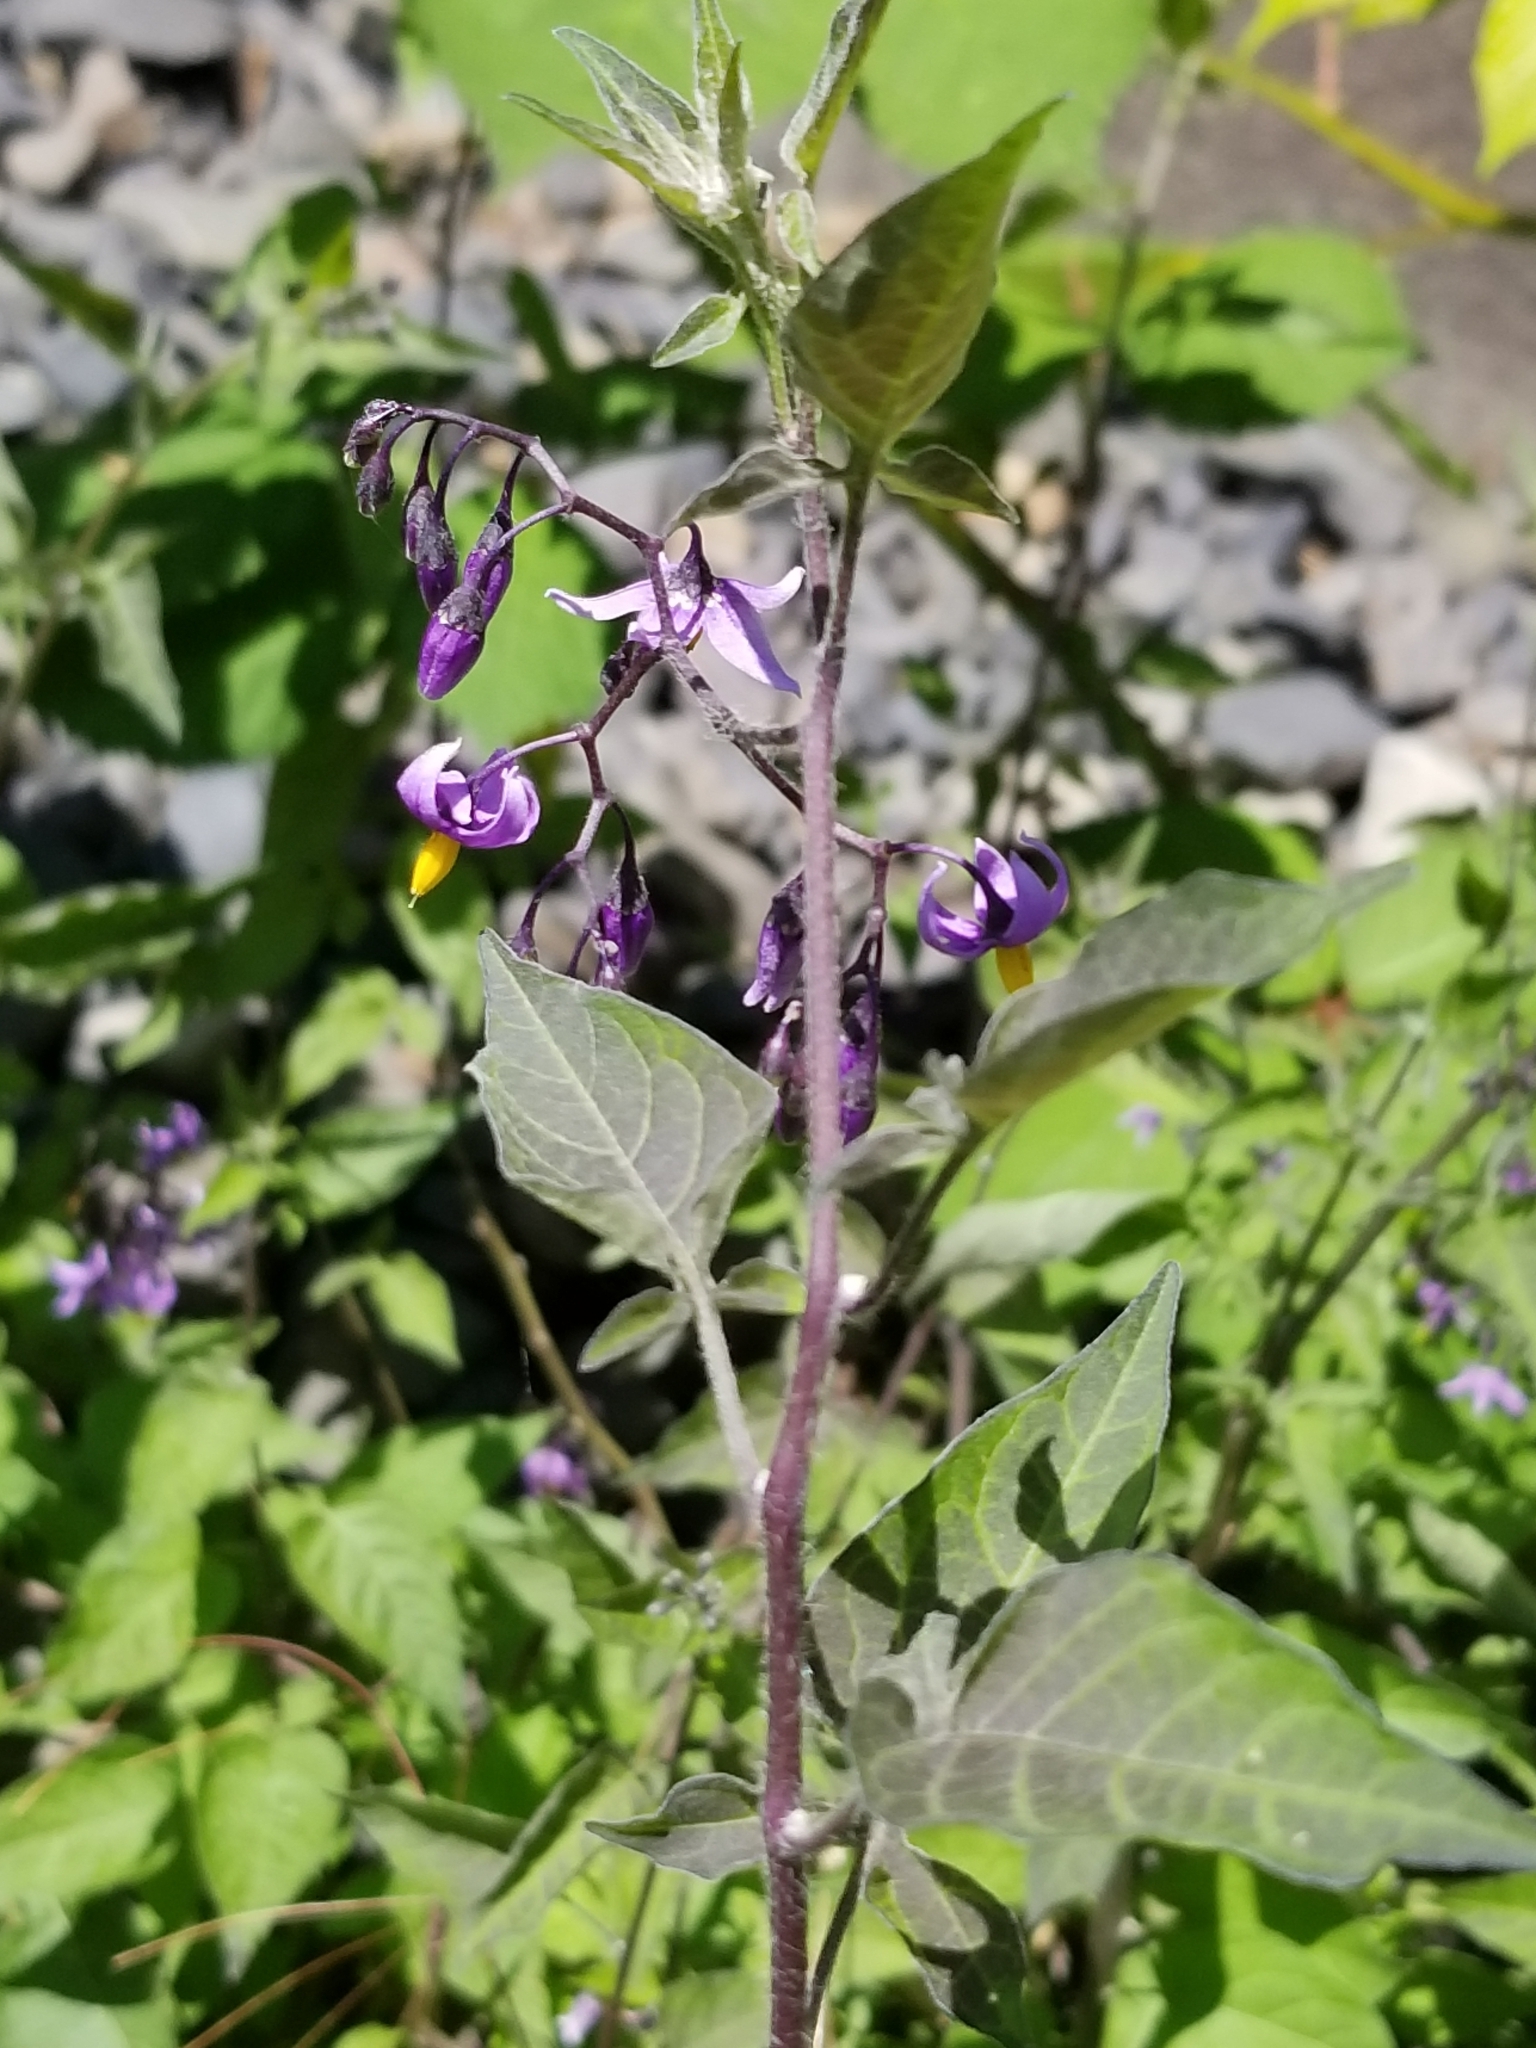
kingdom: Plantae
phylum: Tracheophyta
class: Magnoliopsida
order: Solanales
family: Solanaceae
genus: Solanum
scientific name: Solanum dulcamara
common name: Climbing nightshade
